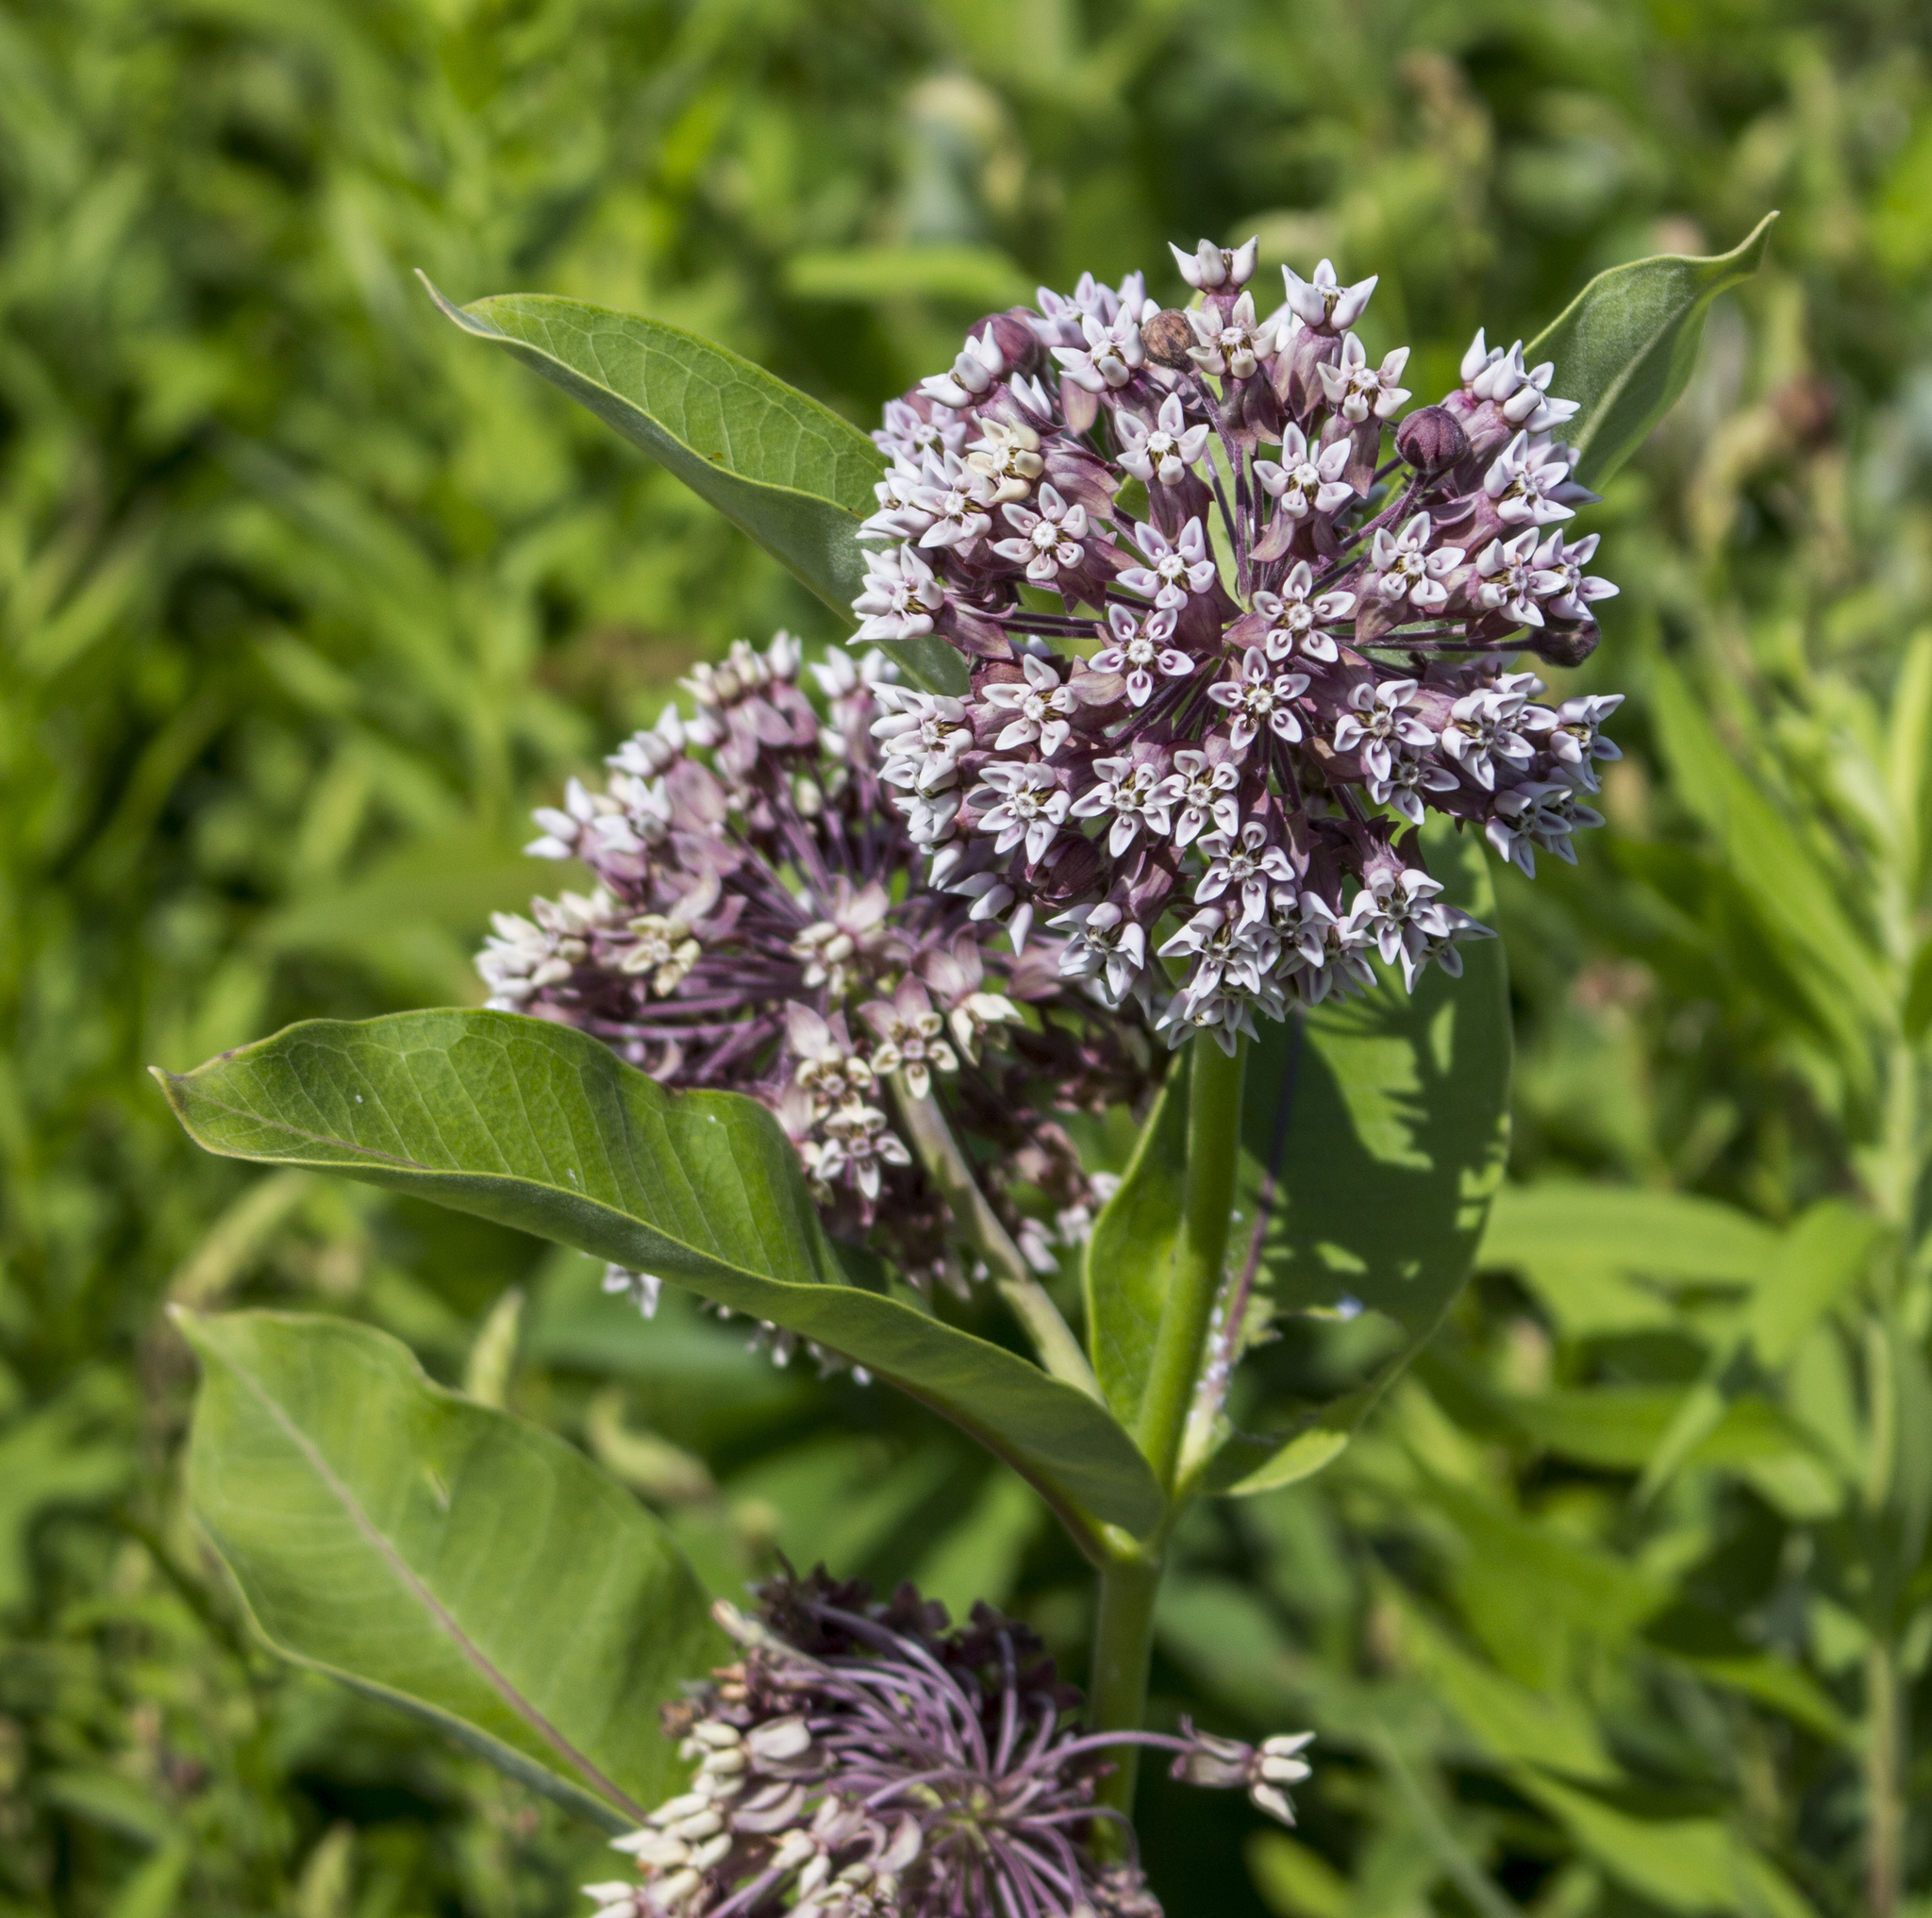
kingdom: Plantae
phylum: Tracheophyta
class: Magnoliopsida
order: Gentianales
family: Apocynaceae
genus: Asclepias
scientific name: Asclepias syriaca
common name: Common milkweed
